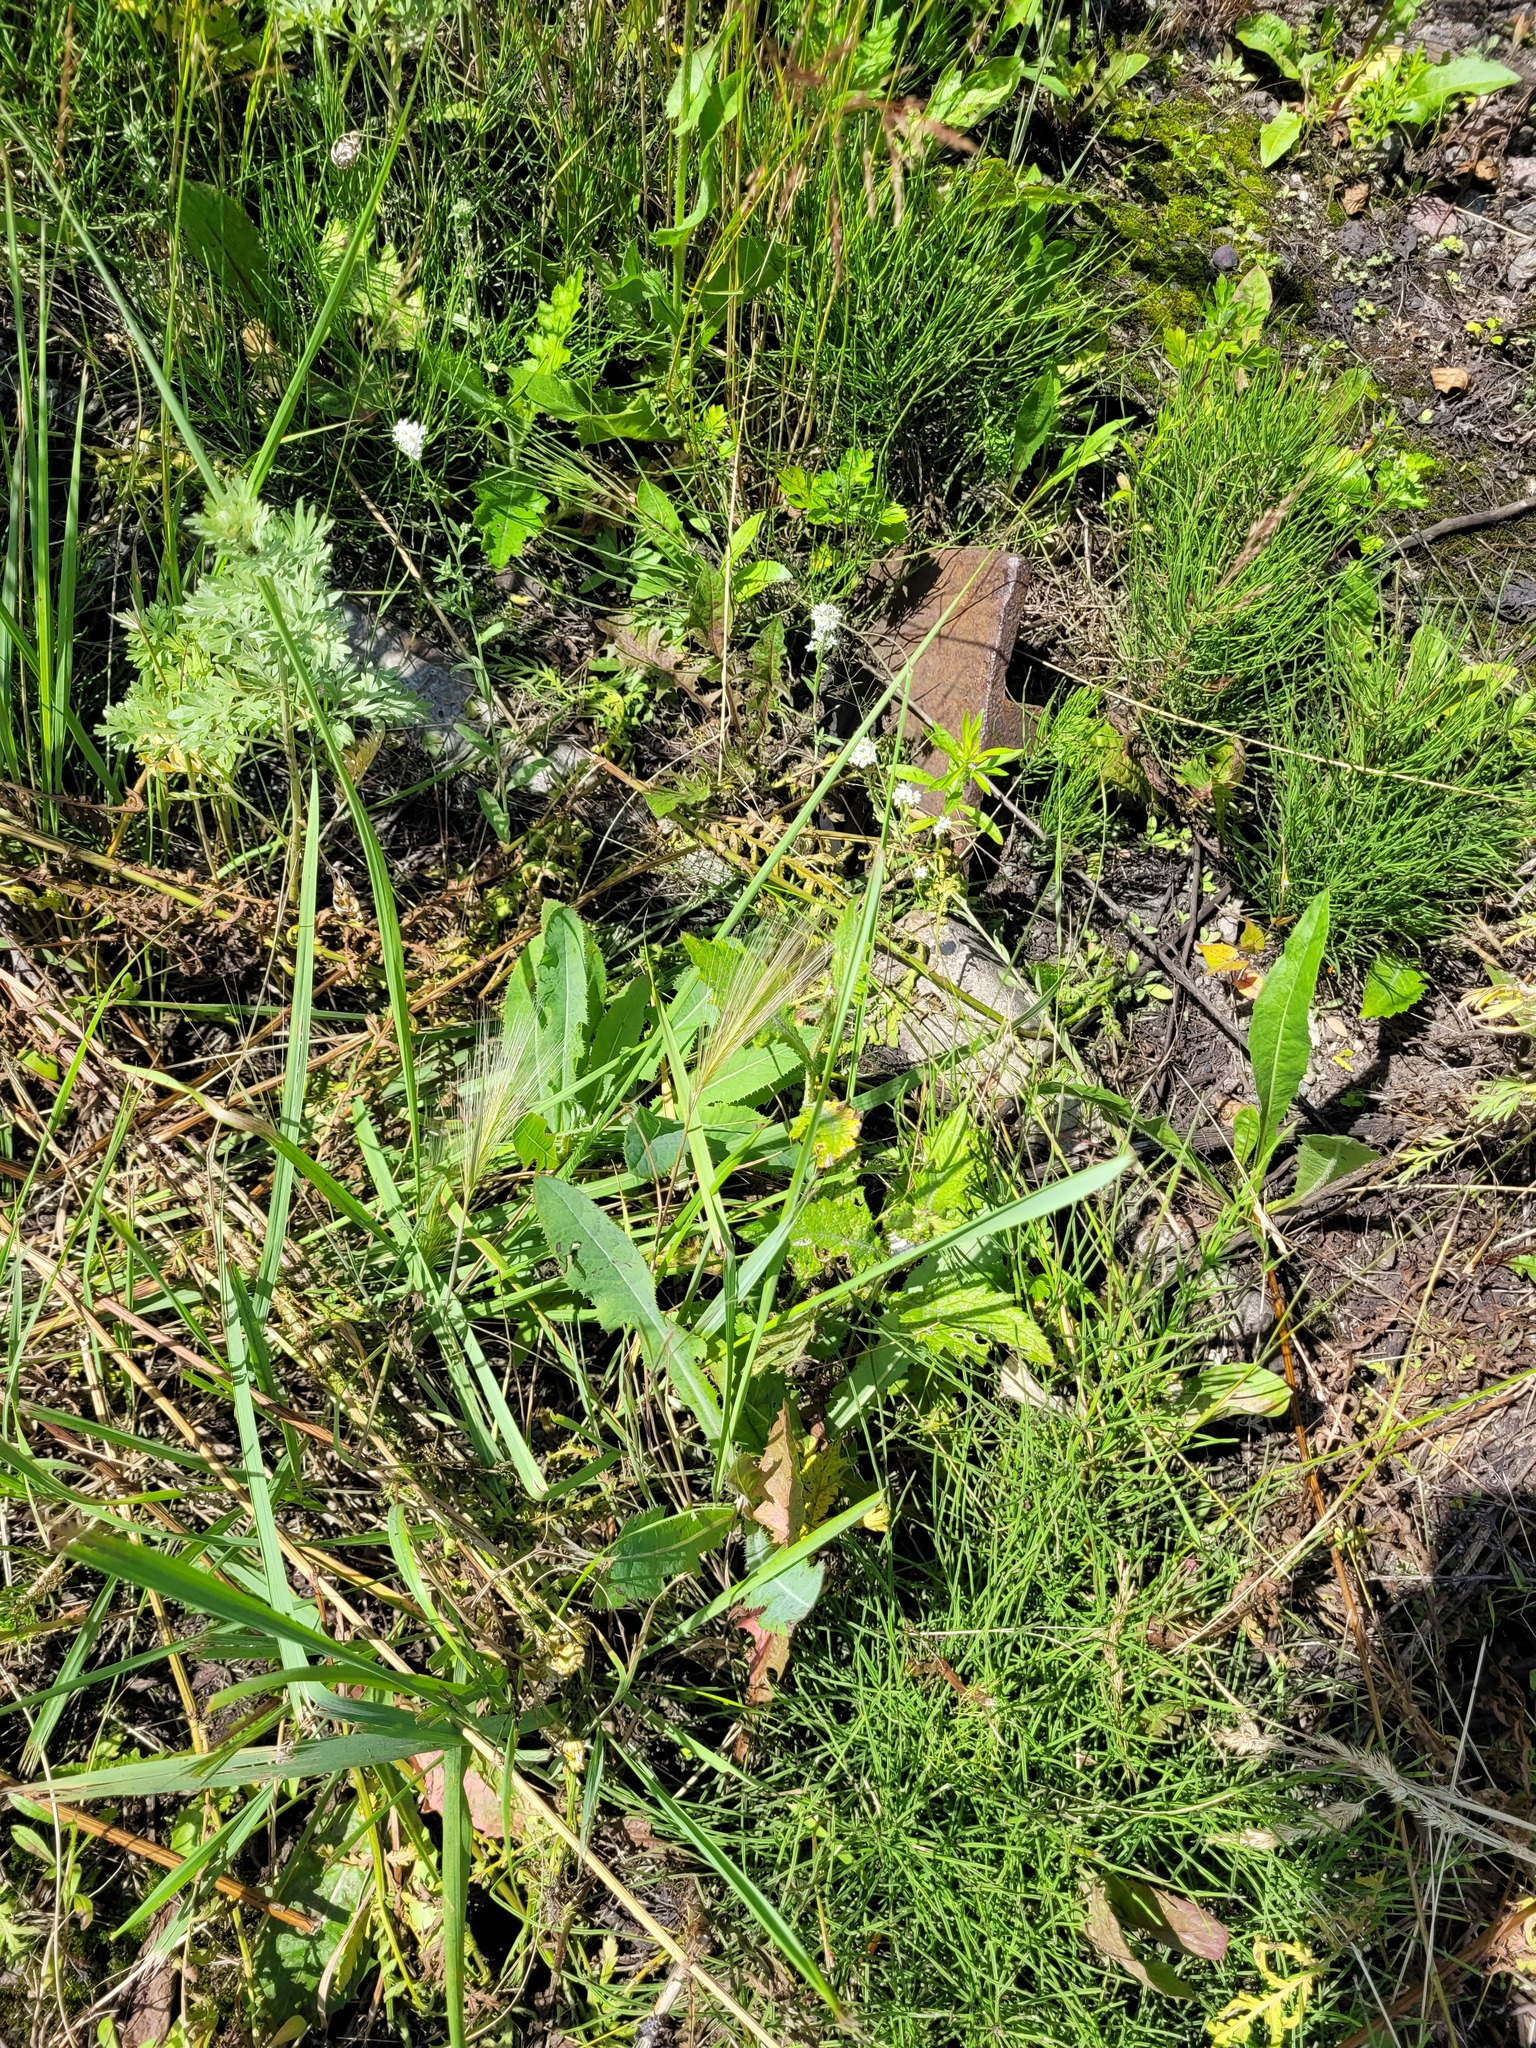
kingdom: Plantae
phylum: Tracheophyta
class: Liliopsida
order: Poales
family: Poaceae
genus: Hordeum
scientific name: Hordeum jubatum
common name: Foxtail barley
